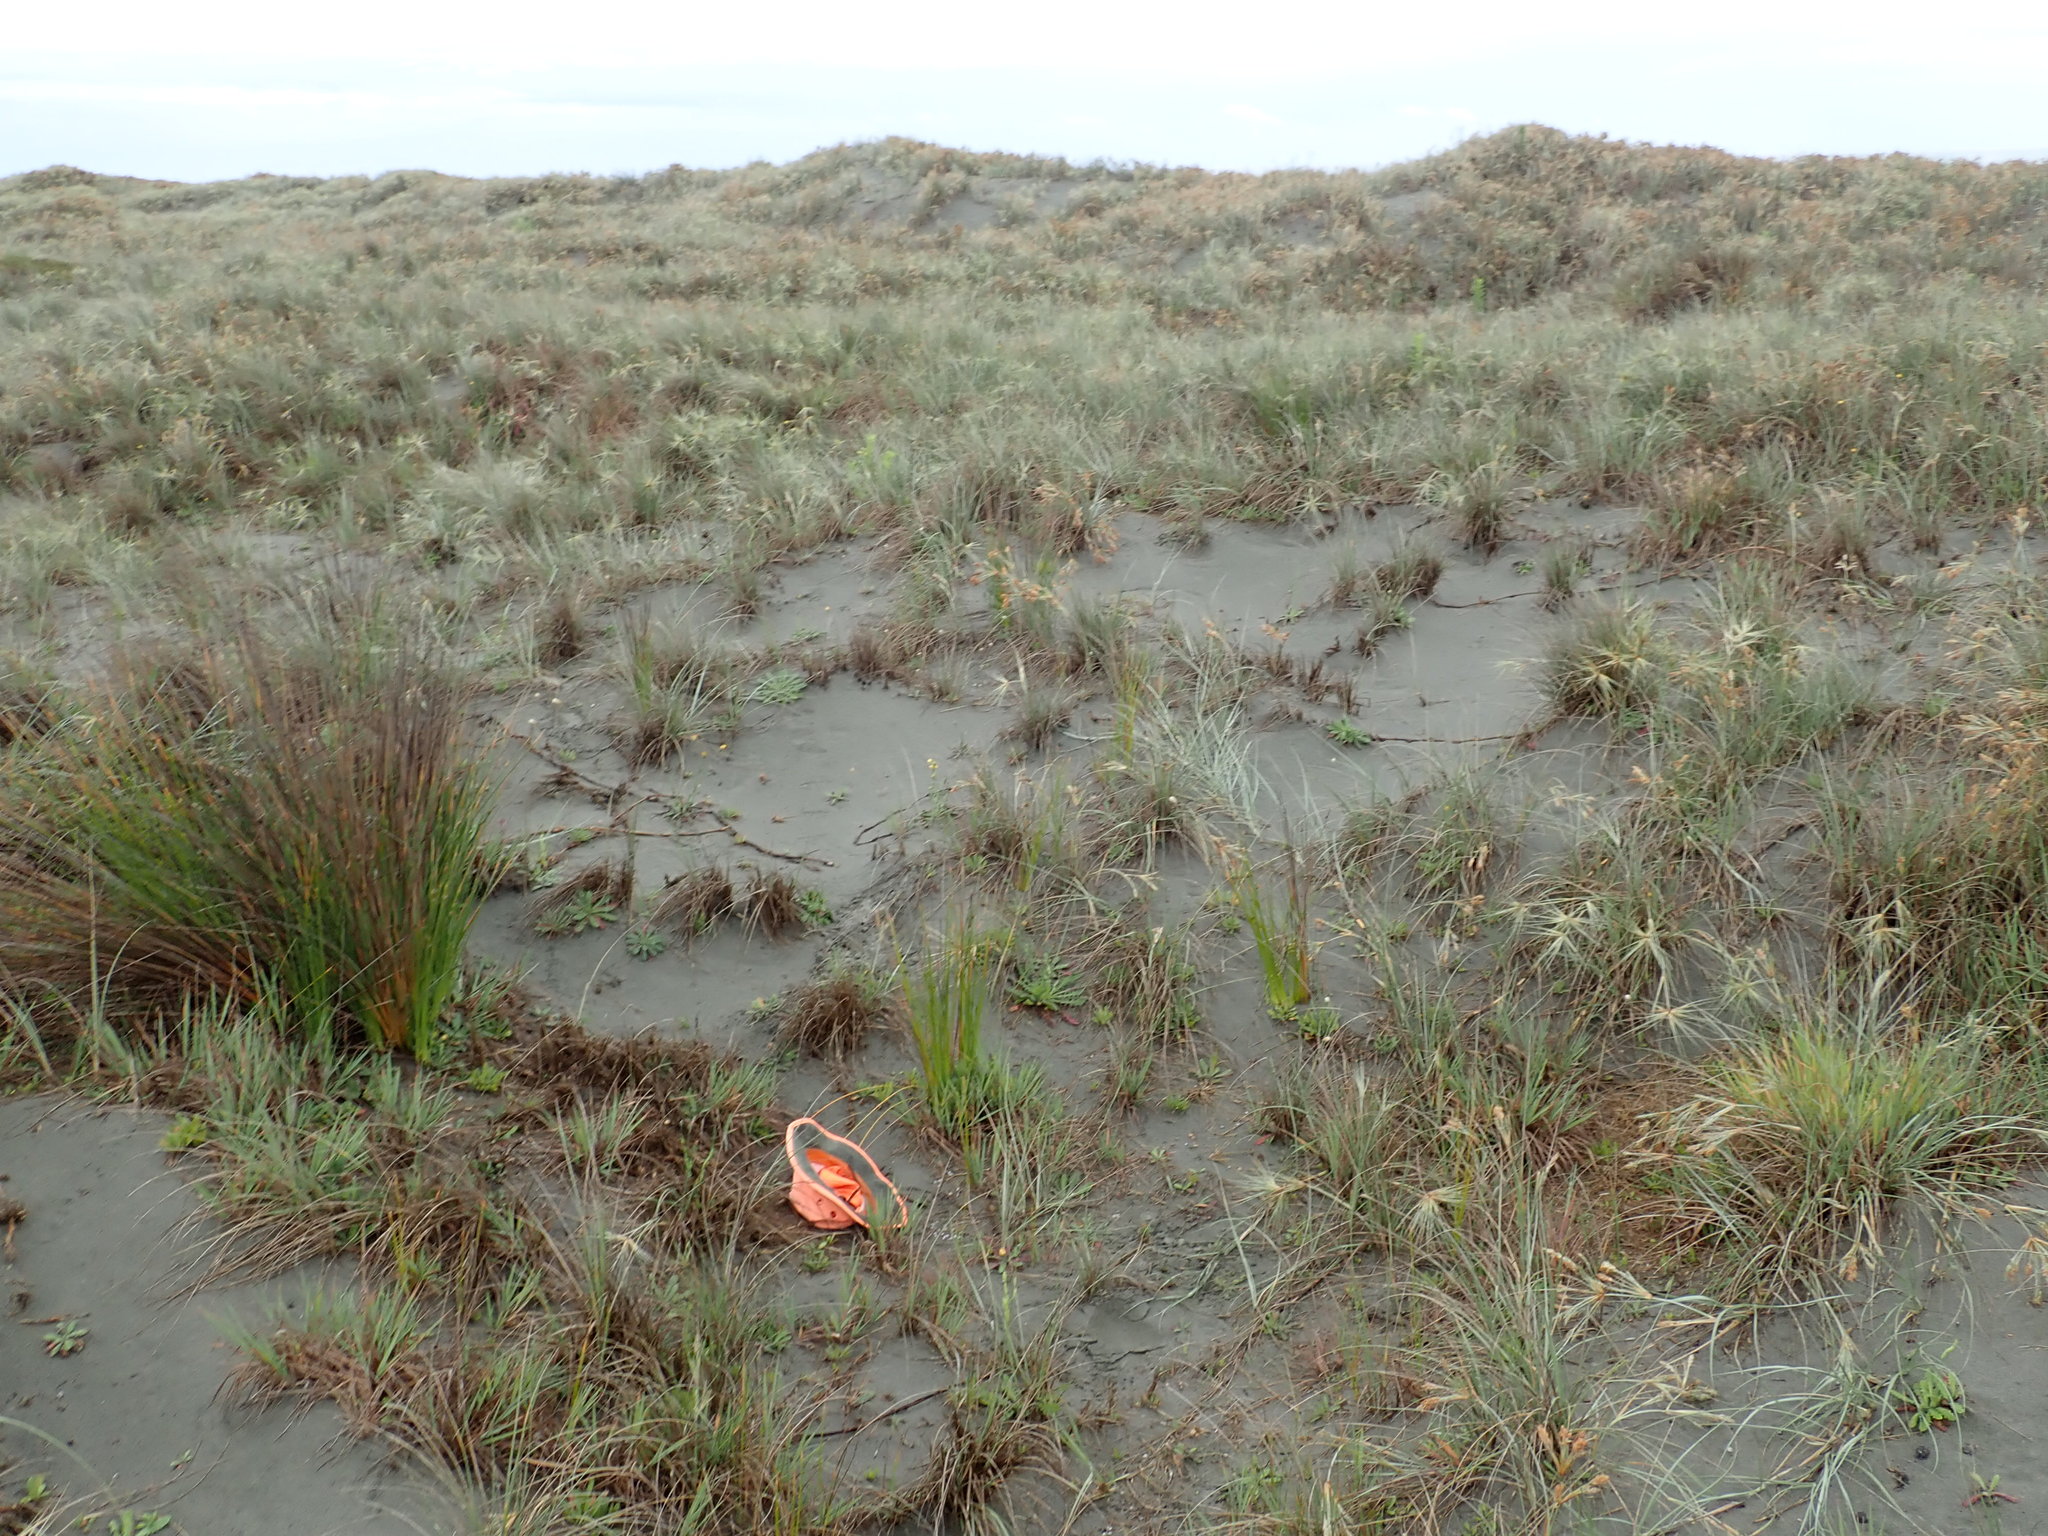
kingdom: Animalia
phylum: Mollusca
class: Gastropoda
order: Stylommatophora
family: Geomitridae
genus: Xeroplexa
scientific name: Xeroplexa intersecta
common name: Wrinkled snail
